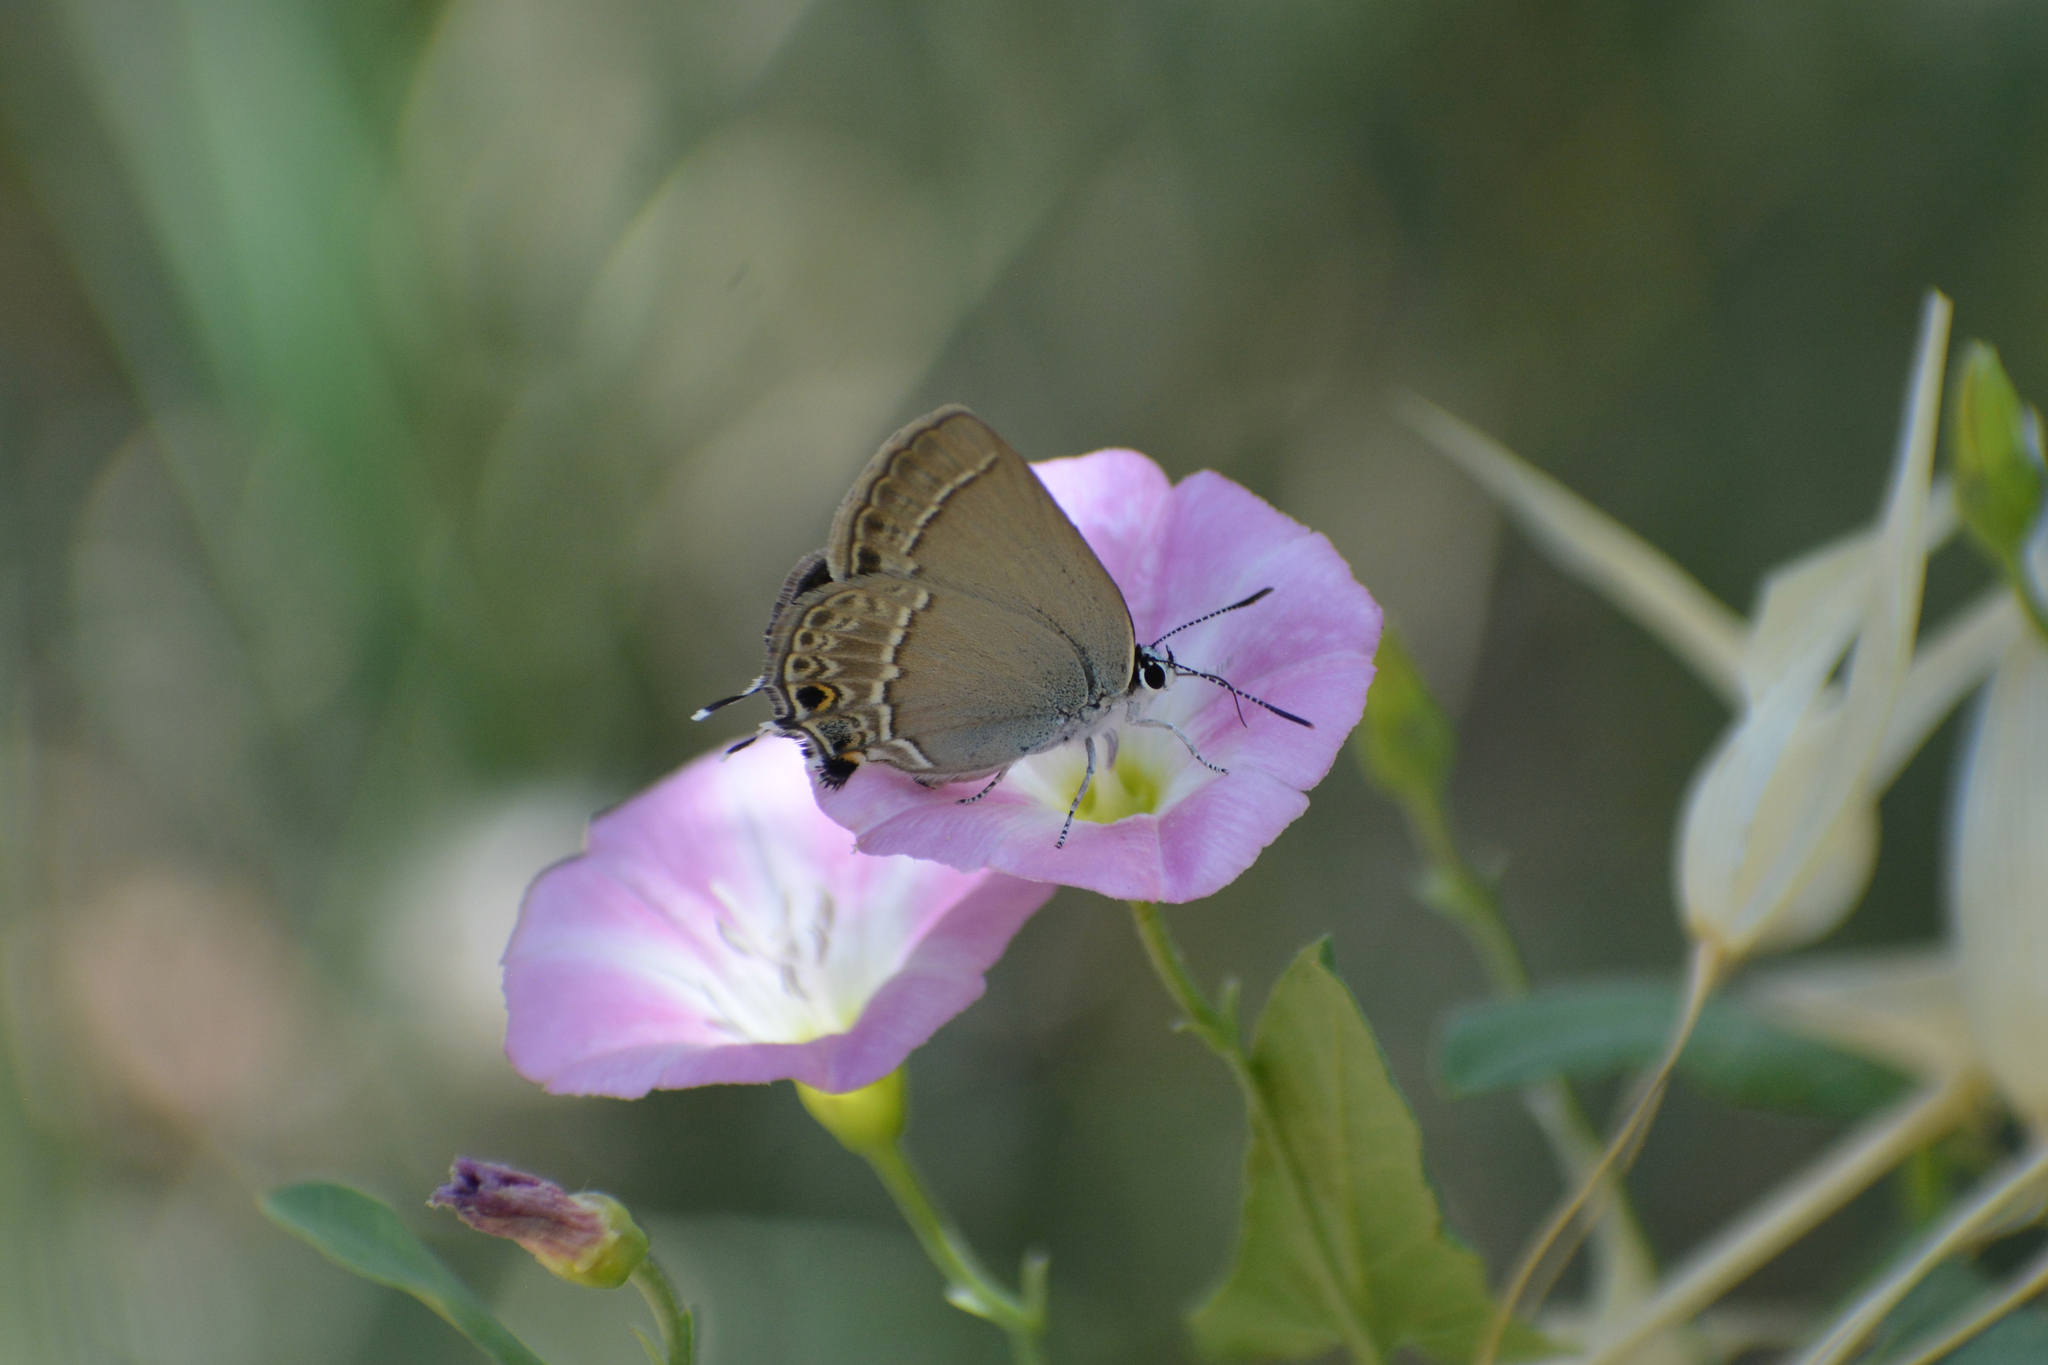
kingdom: Animalia
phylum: Arthropoda
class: Insecta
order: Lepidoptera
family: Lycaenidae
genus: Satyrium
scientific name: Satyrium abdominalis
